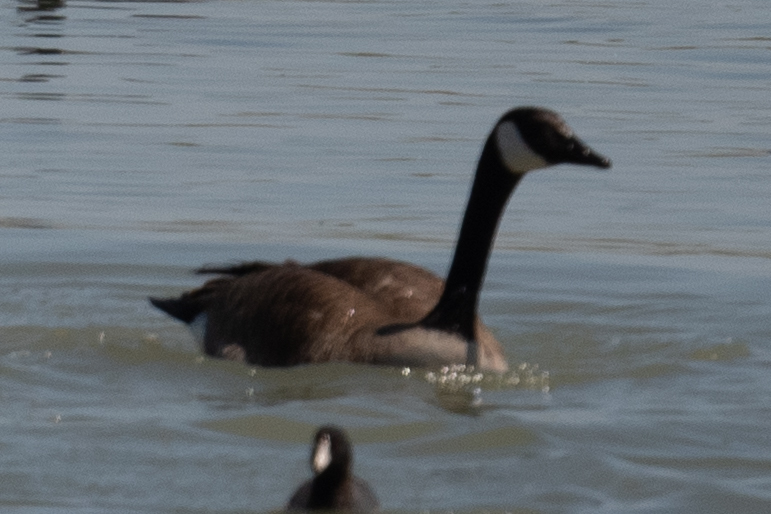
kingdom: Animalia
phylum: Chordata
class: Aves
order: Anseriformes
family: Anatidae
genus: Branta
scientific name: Branta canadensis
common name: Canada goose
